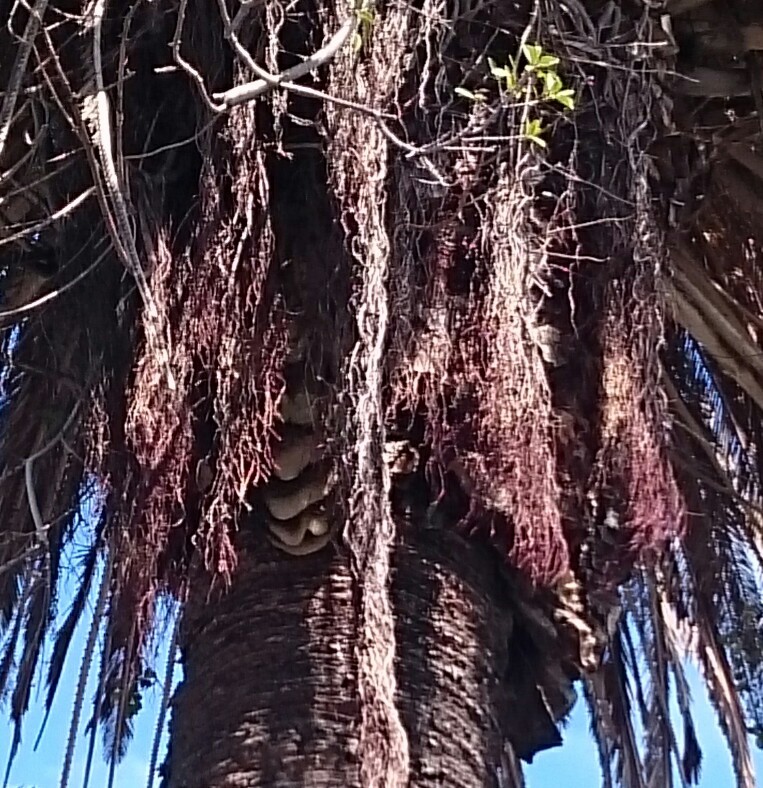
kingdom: Animalia
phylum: Arthropoda
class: Insecta
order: Hymenoptera
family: Apidae
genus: Apis
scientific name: Apis mellifera
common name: Honey bee
